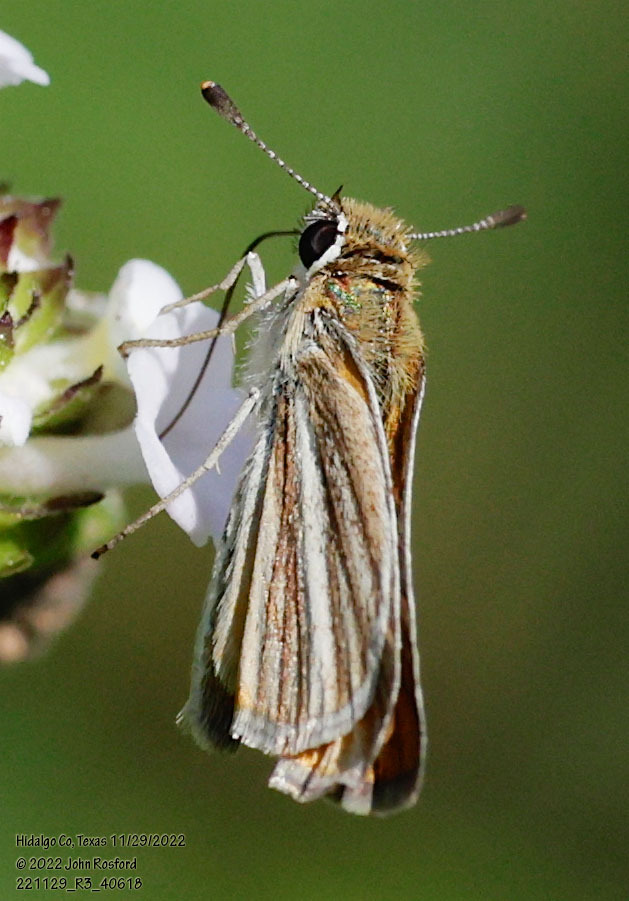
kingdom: Animalia
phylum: Arthropoda
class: Insecta
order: Lepidoptera
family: Hesperiidae
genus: Copaeodes
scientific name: Copaeodes minima
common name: Southern skipperling
